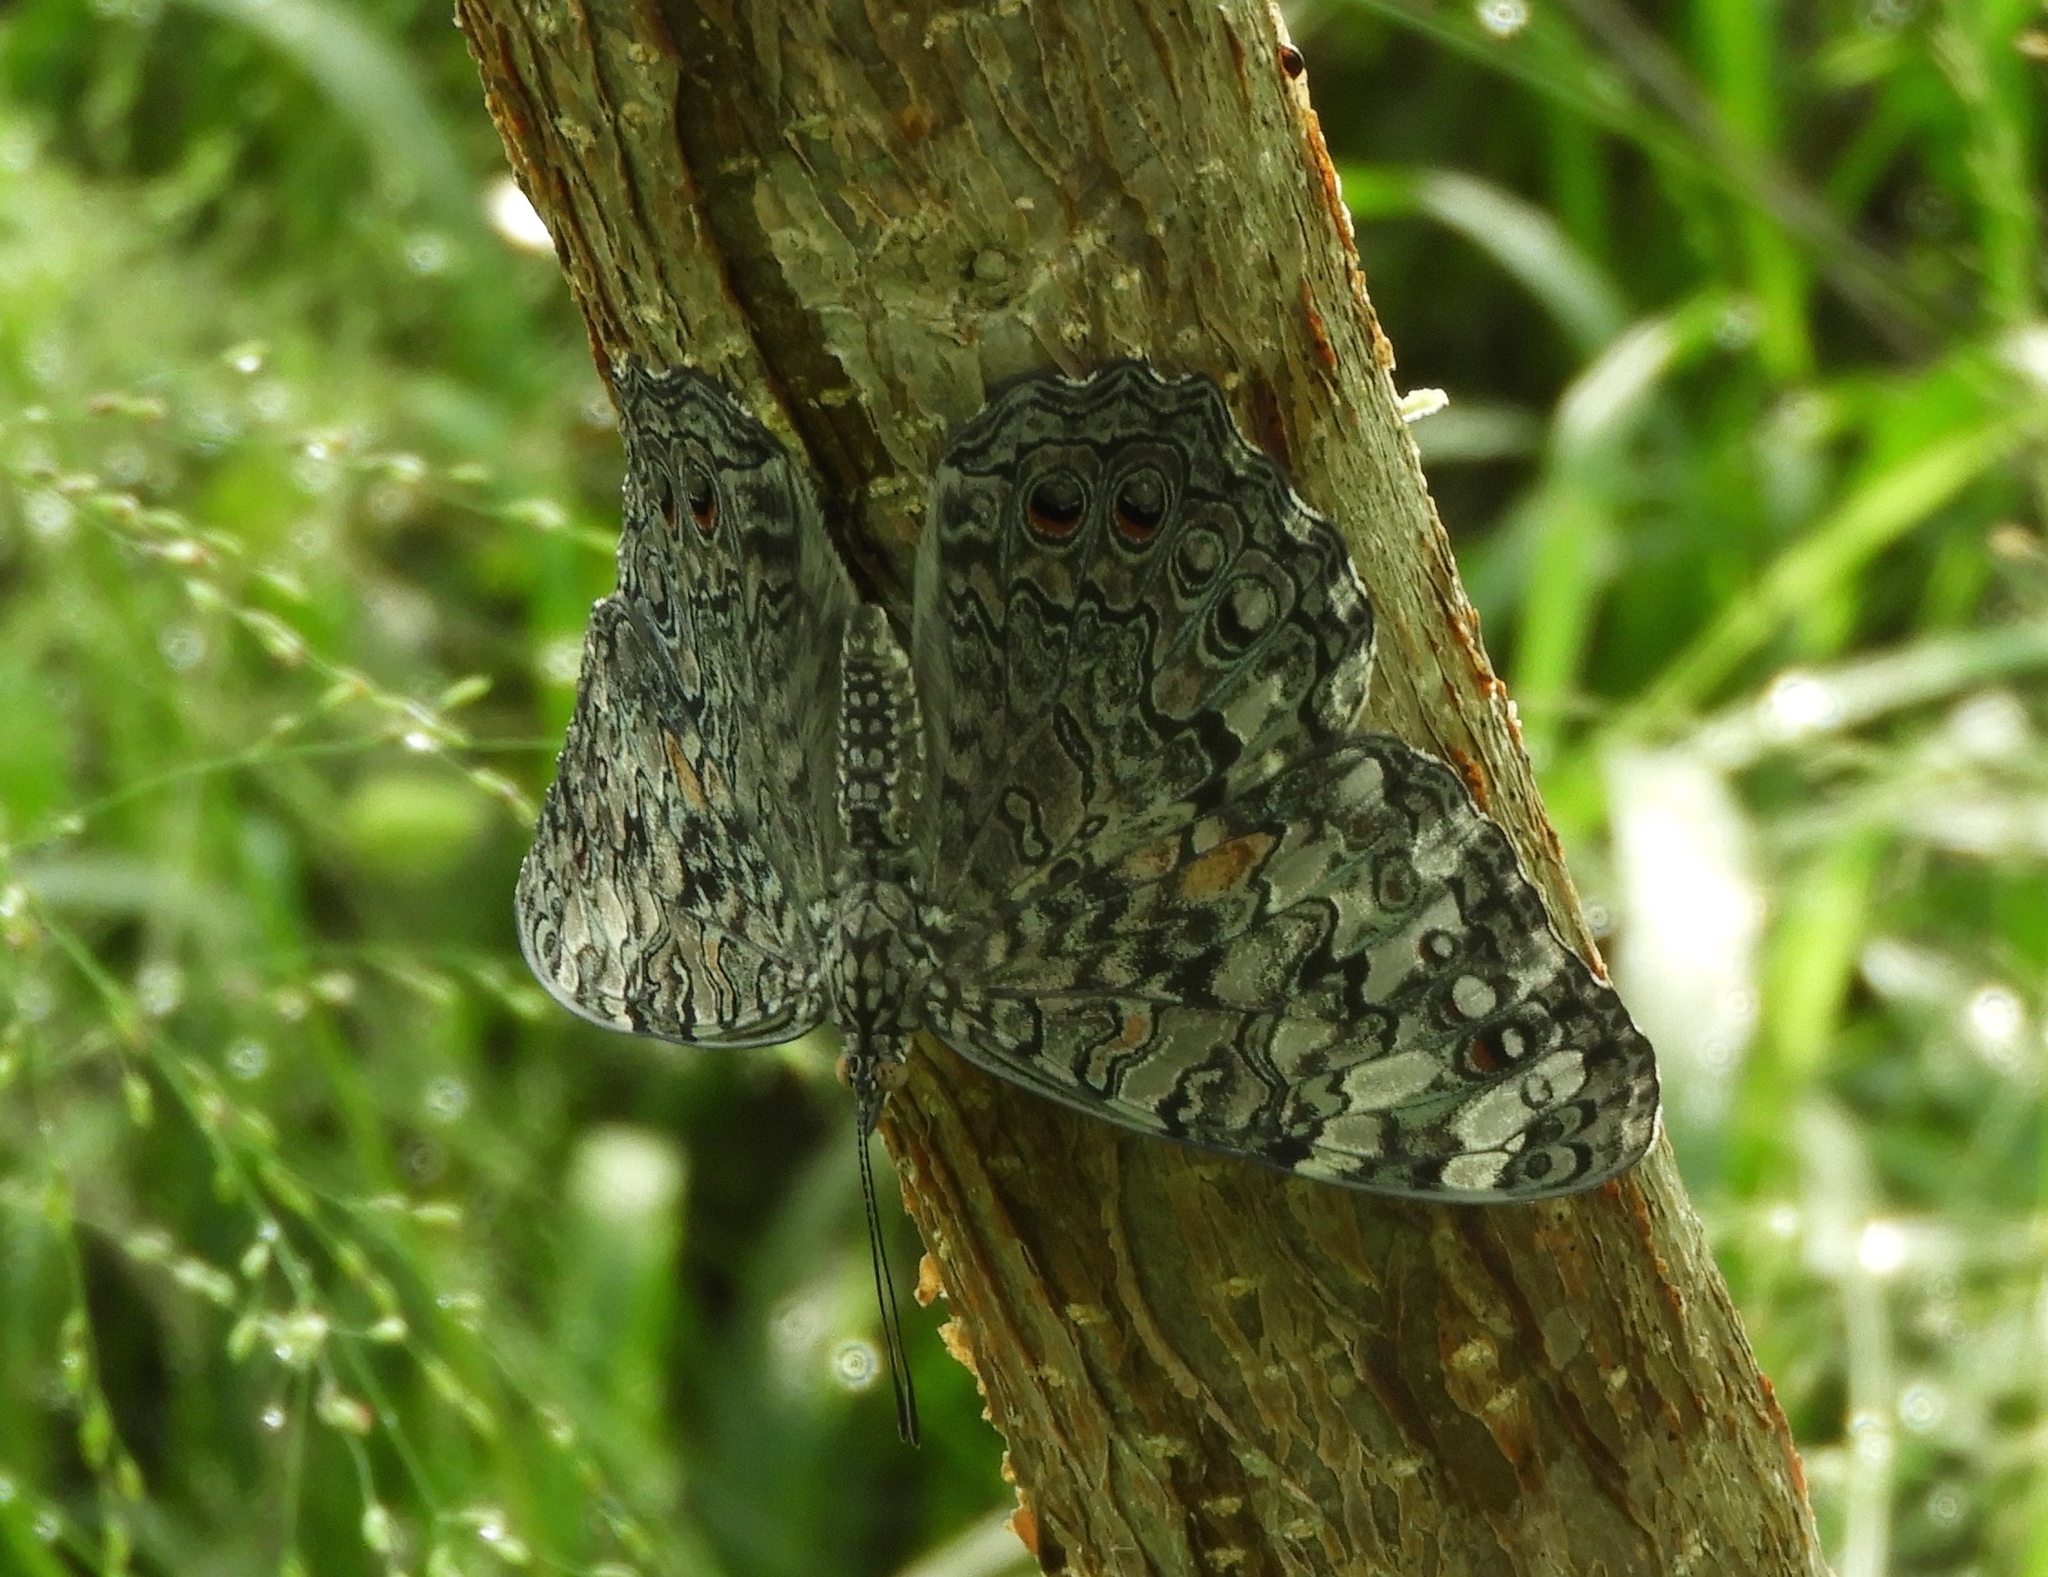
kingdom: Animalia
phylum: Arthropoda
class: Insecta
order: Lepidoptera
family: Nymphalidae
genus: Hamadryas
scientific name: Hamadryas februa
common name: Gray cracker
